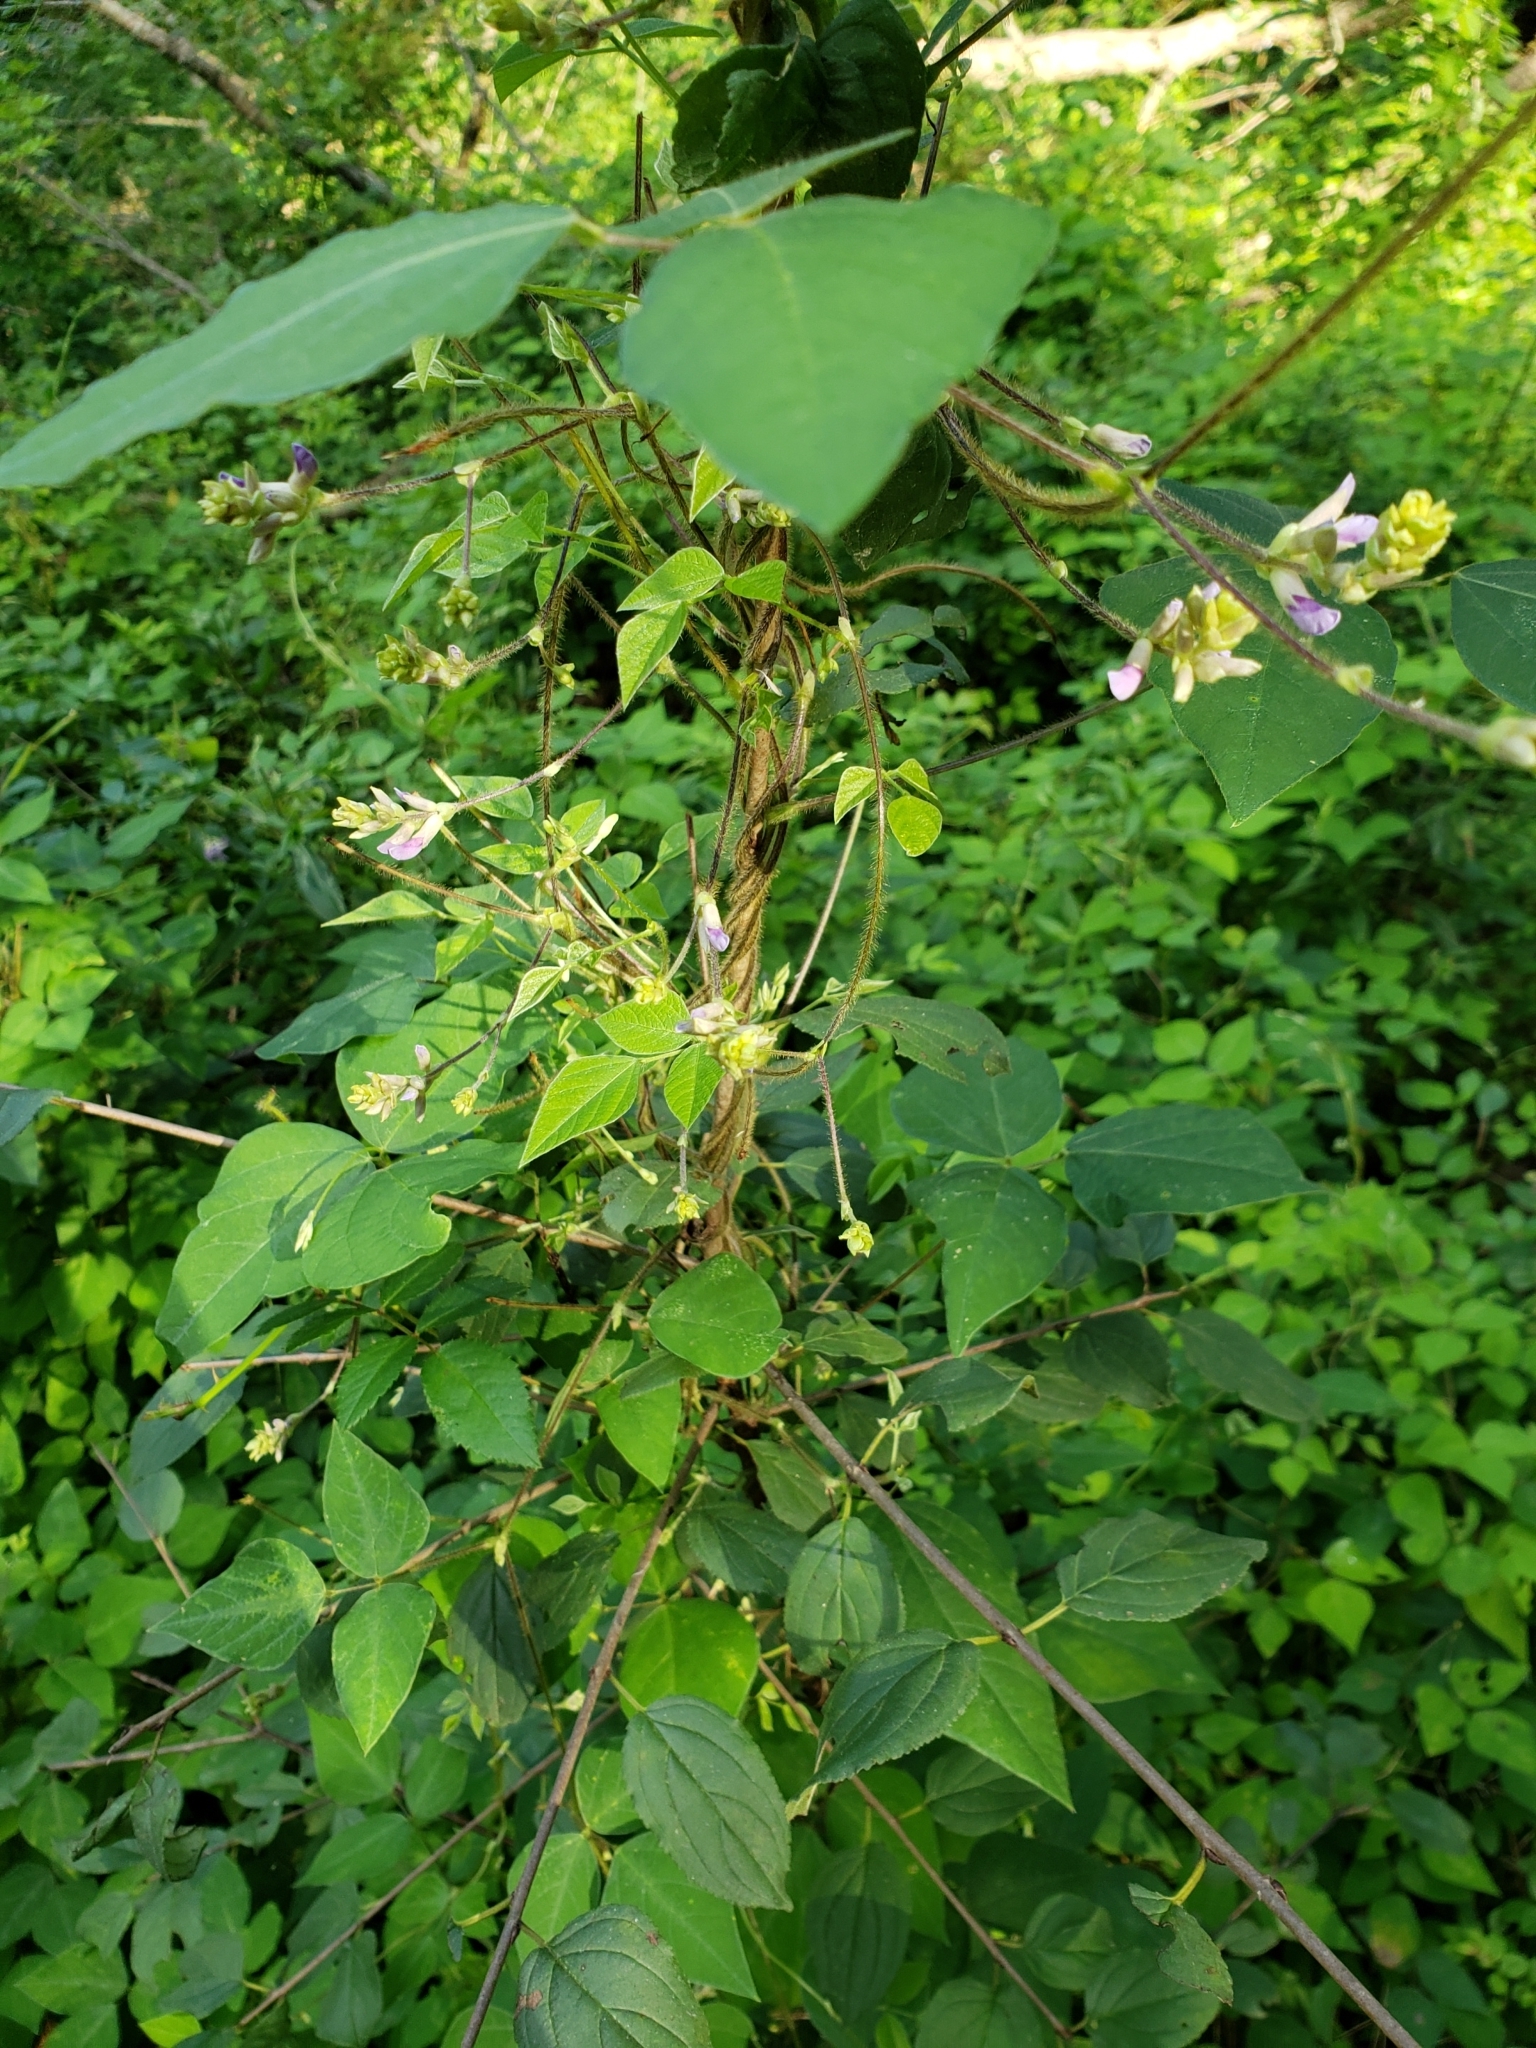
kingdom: Plantae
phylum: Tracheophyta
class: Magnoliopsida
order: Fabales
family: Fabaceae
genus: Amphicarpaea
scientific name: Amphicarpaea bracteata
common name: American hog peanut
